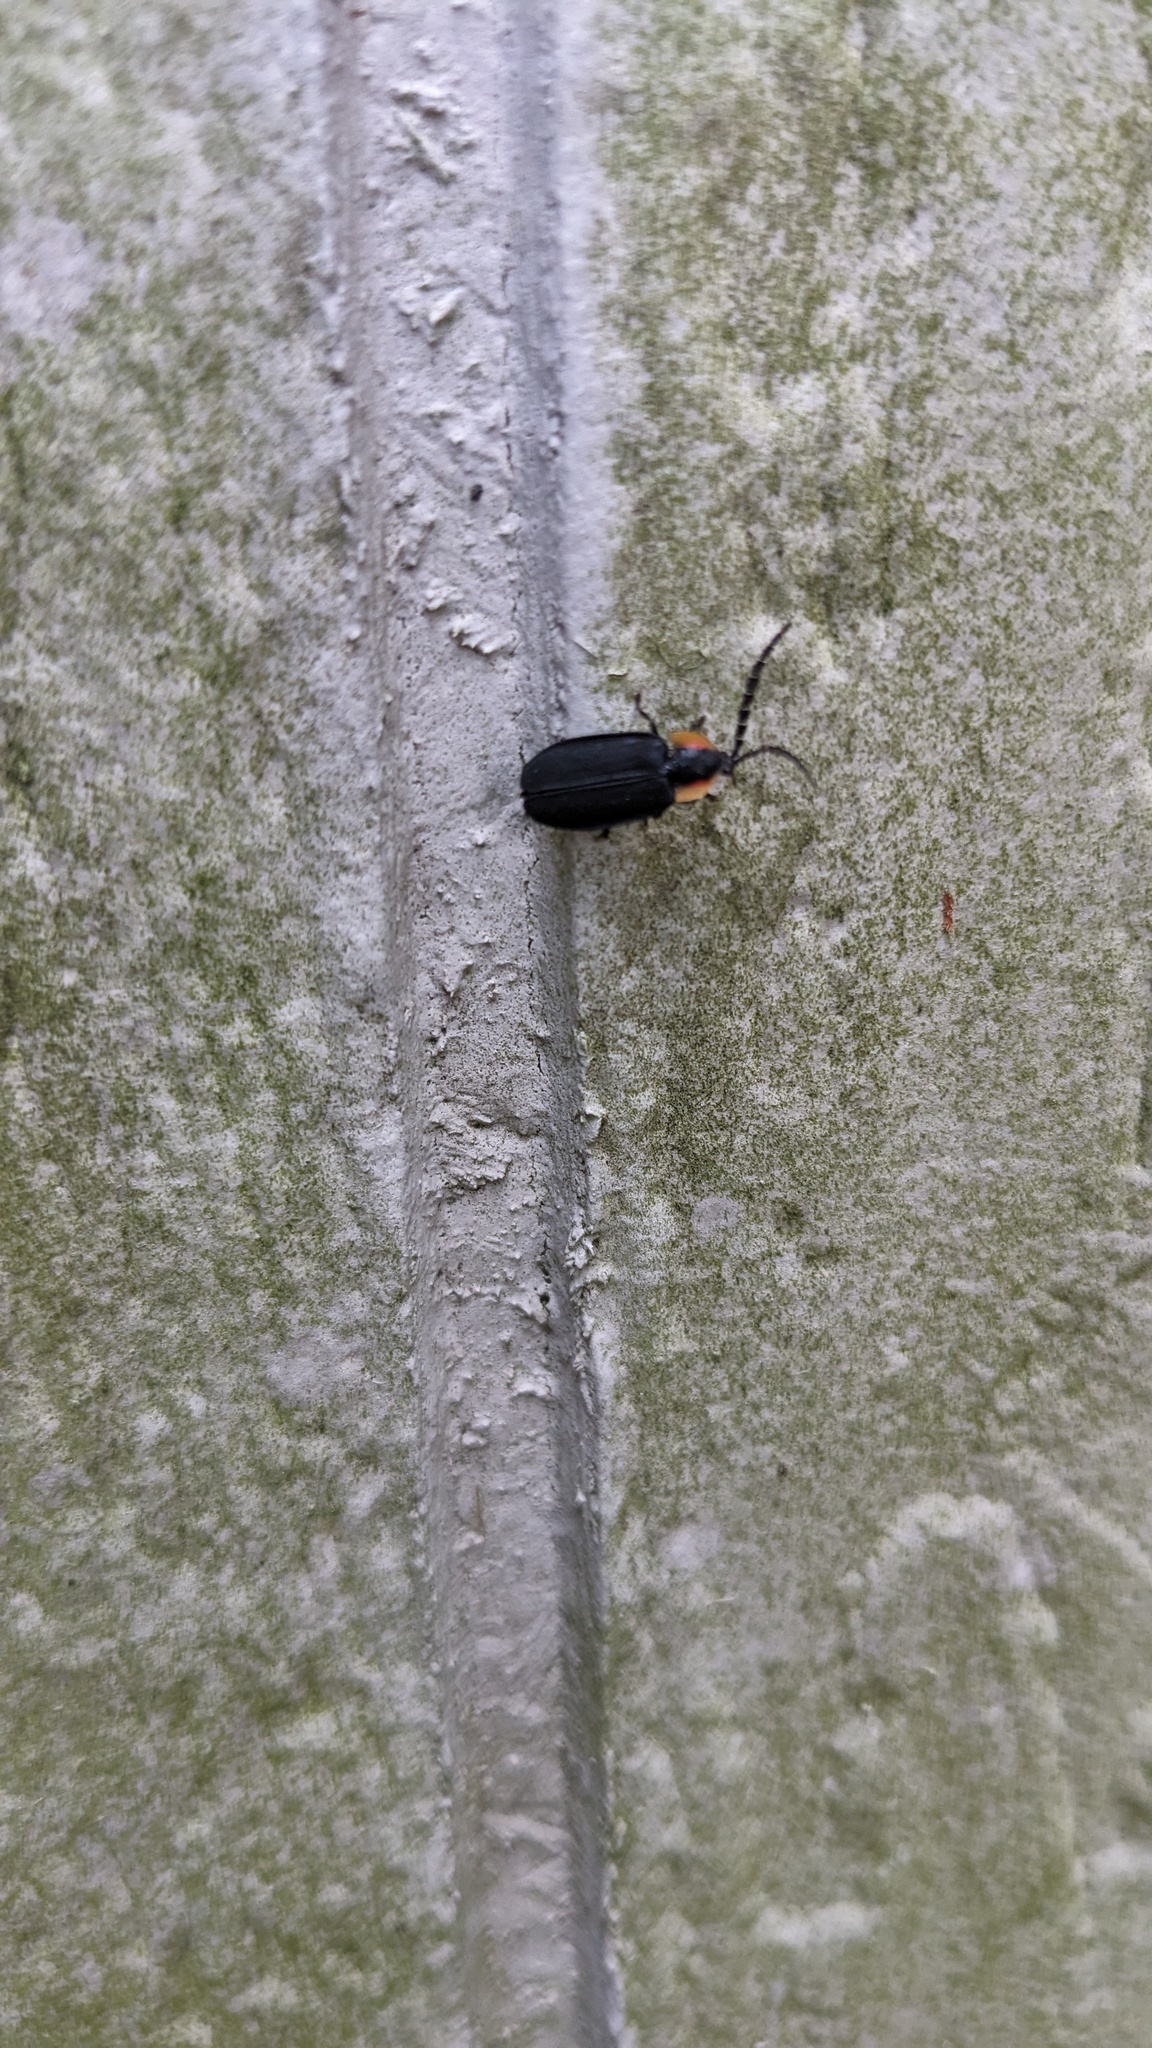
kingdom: Animalia
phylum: Arthropoda
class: Insecta
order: Coleoptera
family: Lampyridae
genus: Lucidota
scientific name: Lucidota atra
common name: Black firefly
